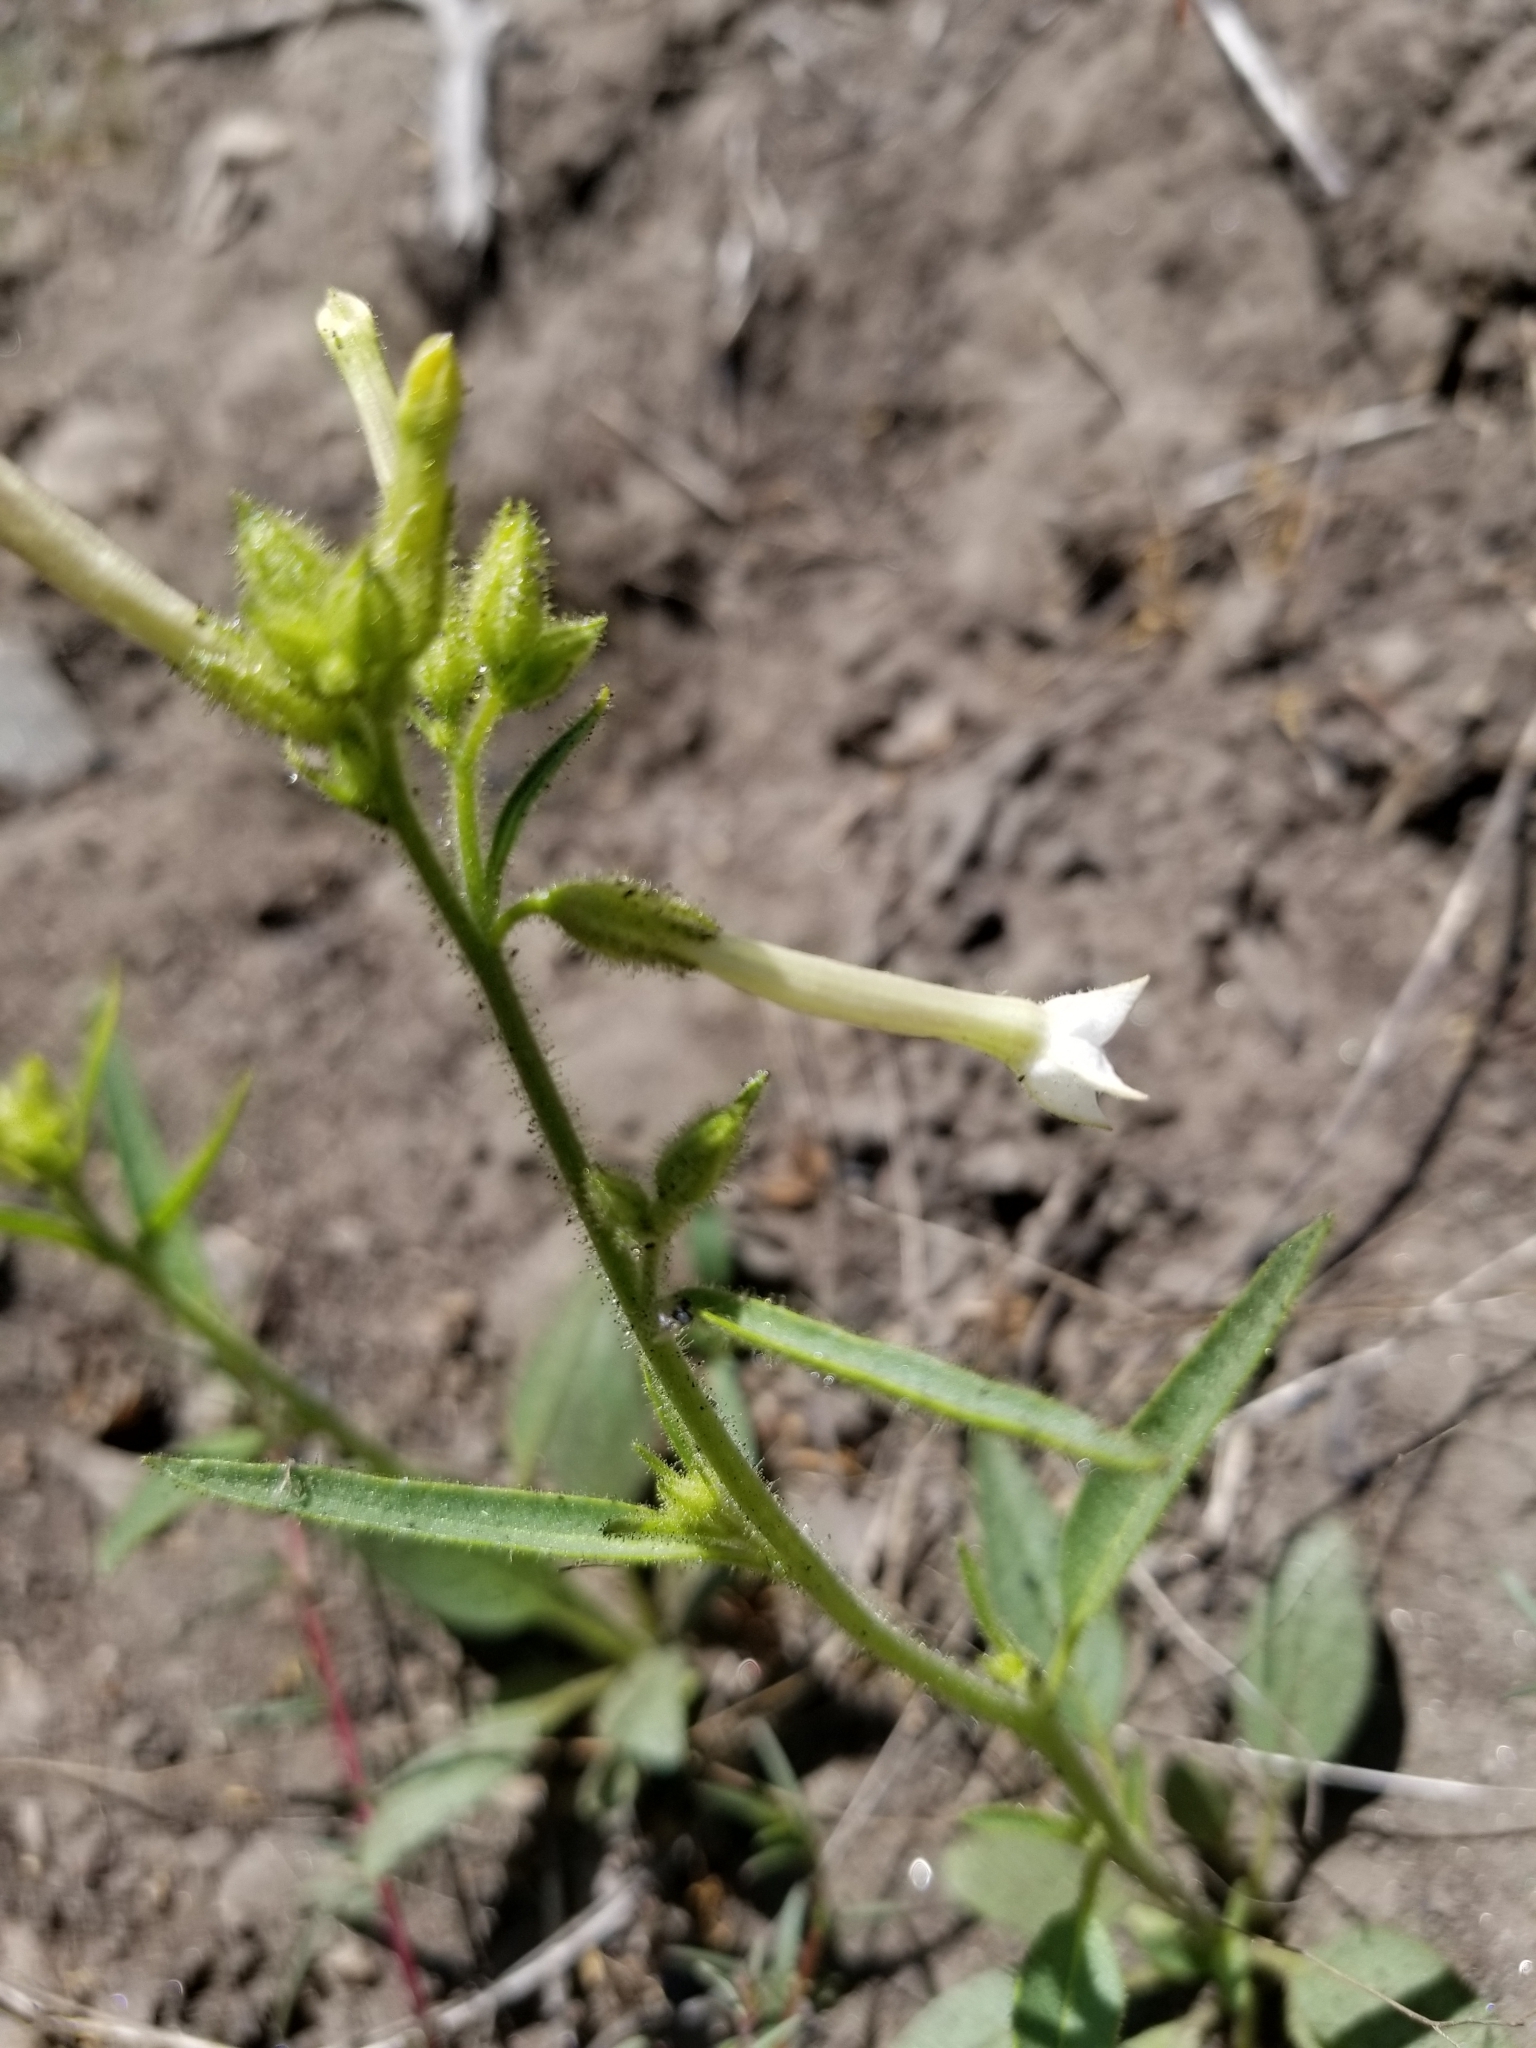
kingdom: Plantae
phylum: Tracheophyta
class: Magnoliopsida
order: Solanales
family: Solanaceae
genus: Nicotiana
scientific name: Nicotiana quadrivalvis
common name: Indian tobacco
